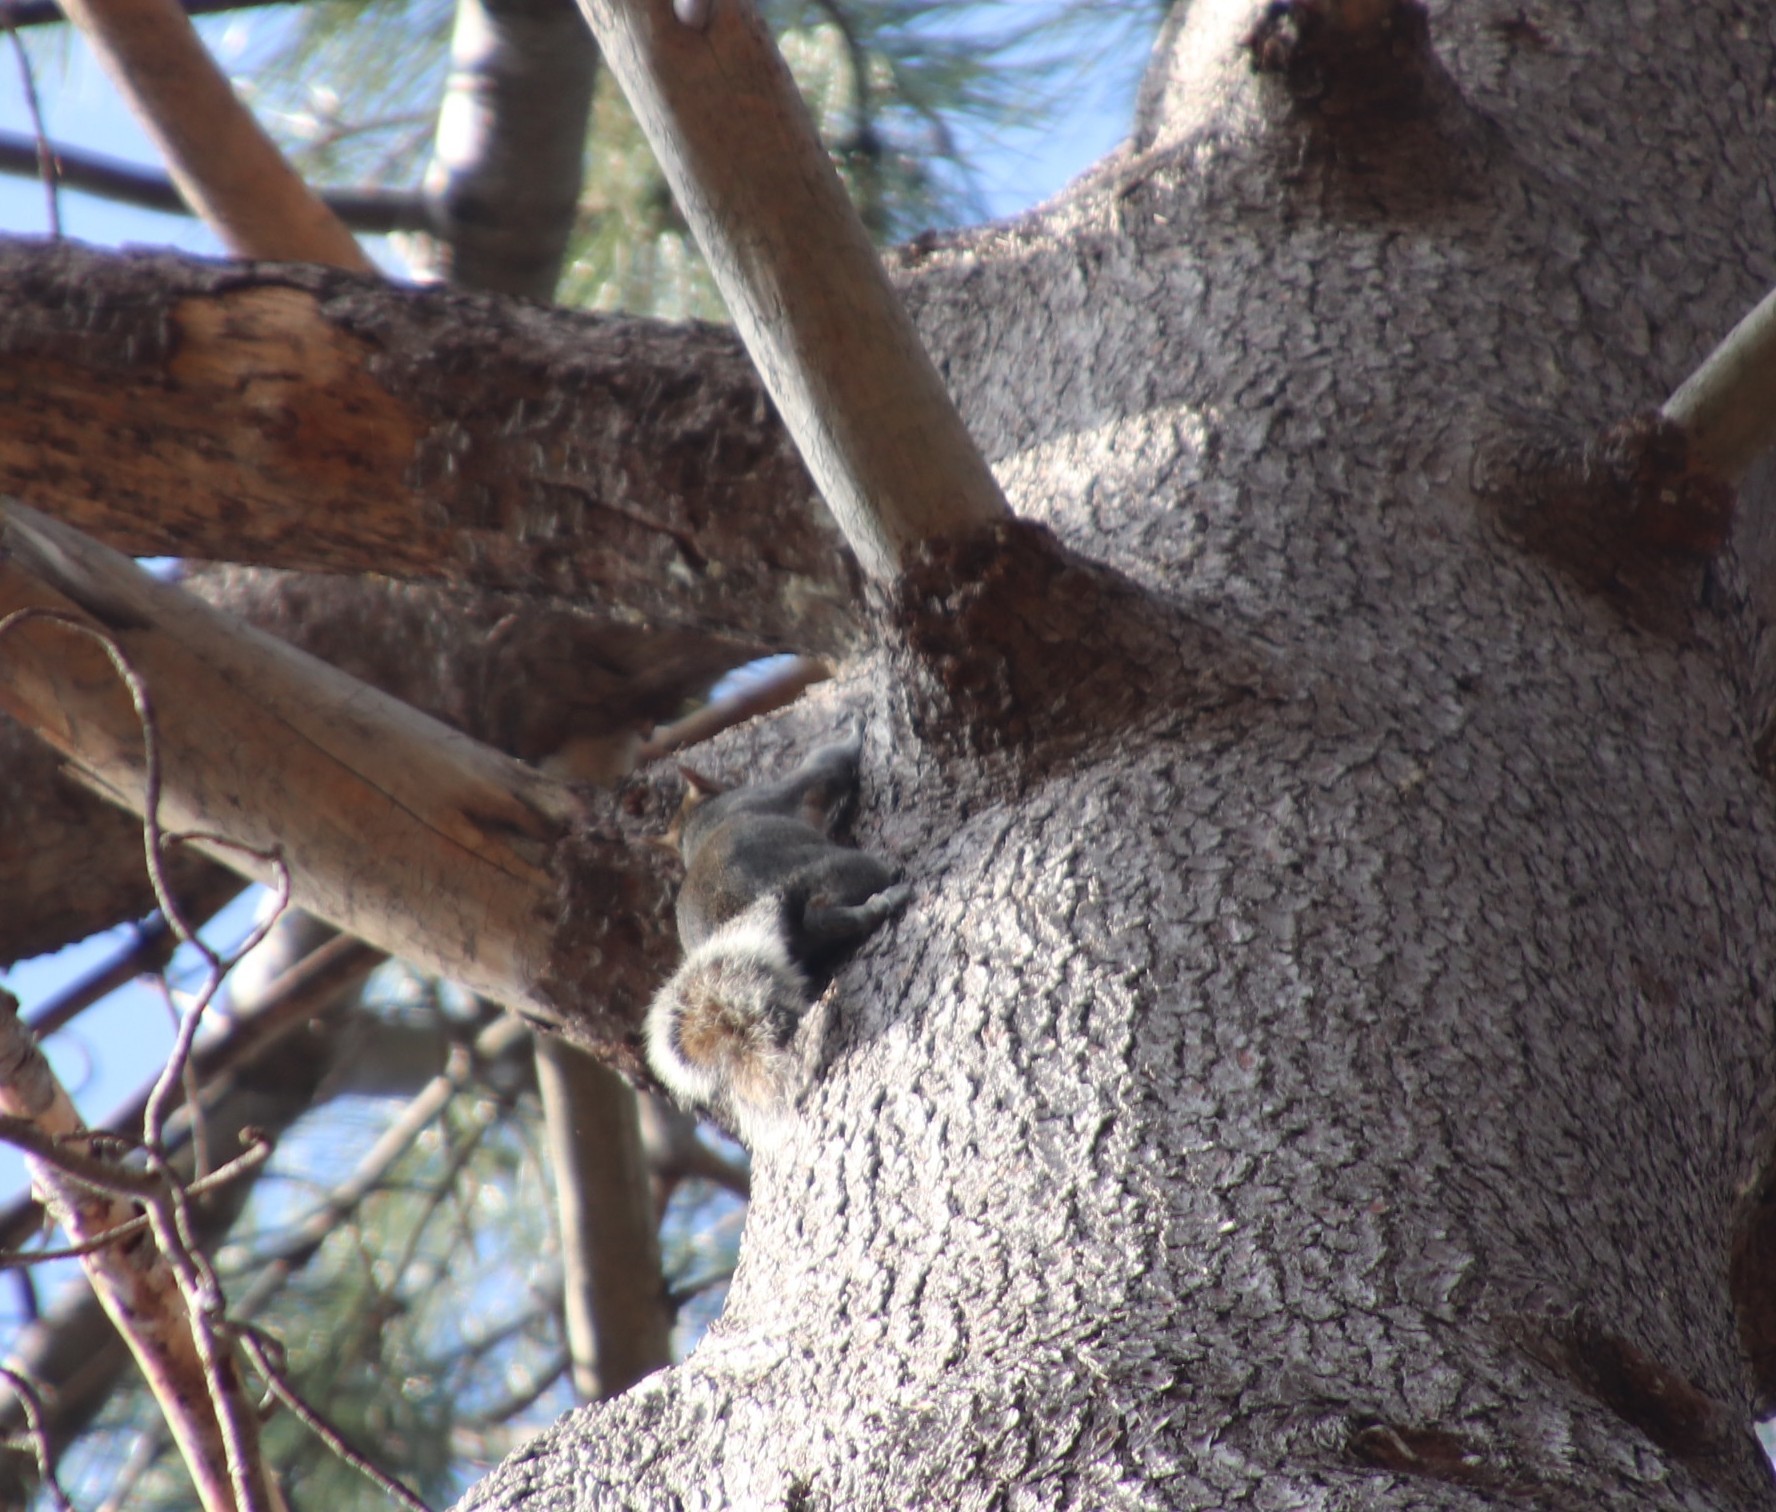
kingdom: Animalia
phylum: Chordata
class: Mammalia
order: Rodentia
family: Sciuridae
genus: Sciurus
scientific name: Sciurus carolinensis
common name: Eastern gray squirrel
